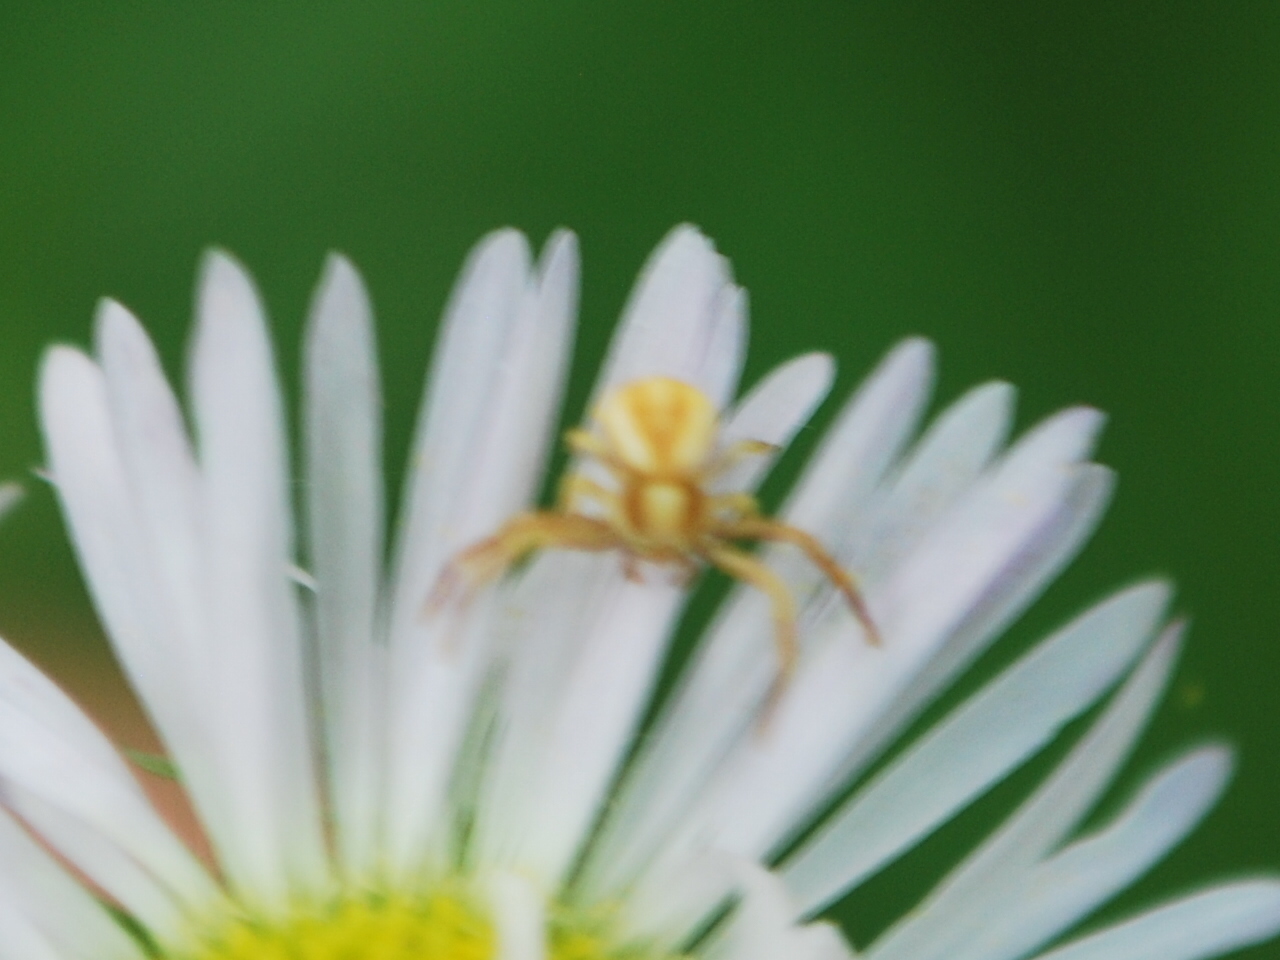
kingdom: Animalia
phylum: Arthropoda
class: Arachnida
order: Araneae
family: Thomisidae
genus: Misumenoides
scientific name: Misumenoides formosipes
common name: White-banded crab spider
